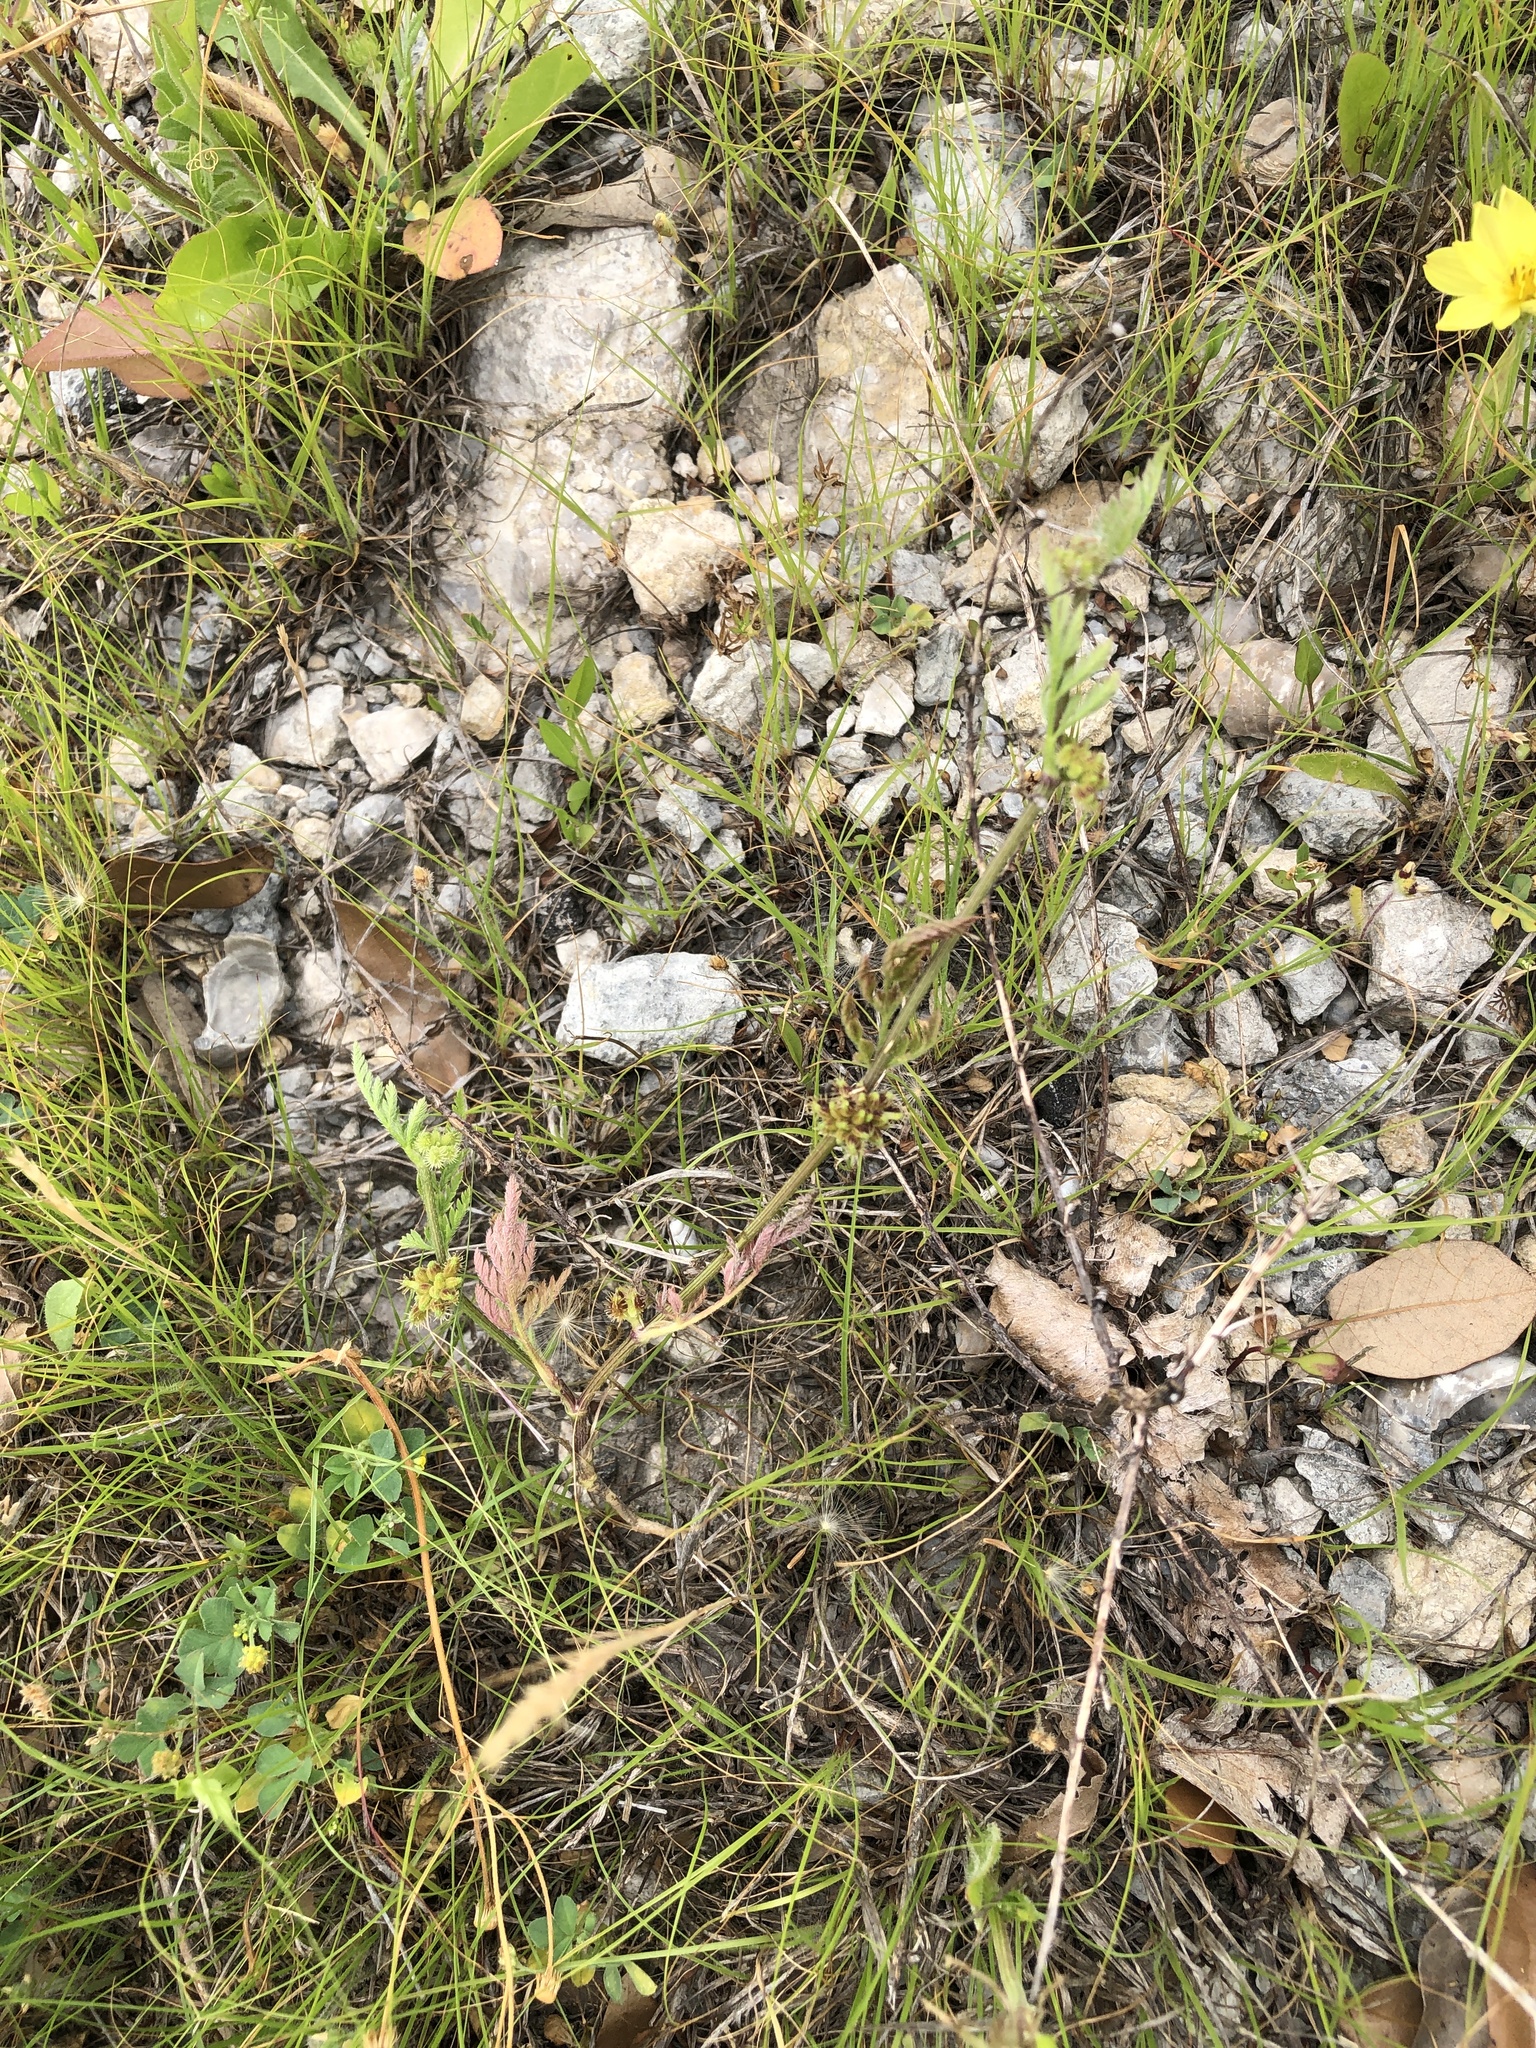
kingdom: Plantae
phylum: Tracheophyta
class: Magnoliopsida
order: Apiales
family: Apiaceae
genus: Torilis
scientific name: Torilis nodosa
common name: Knotted hedge-parsley
